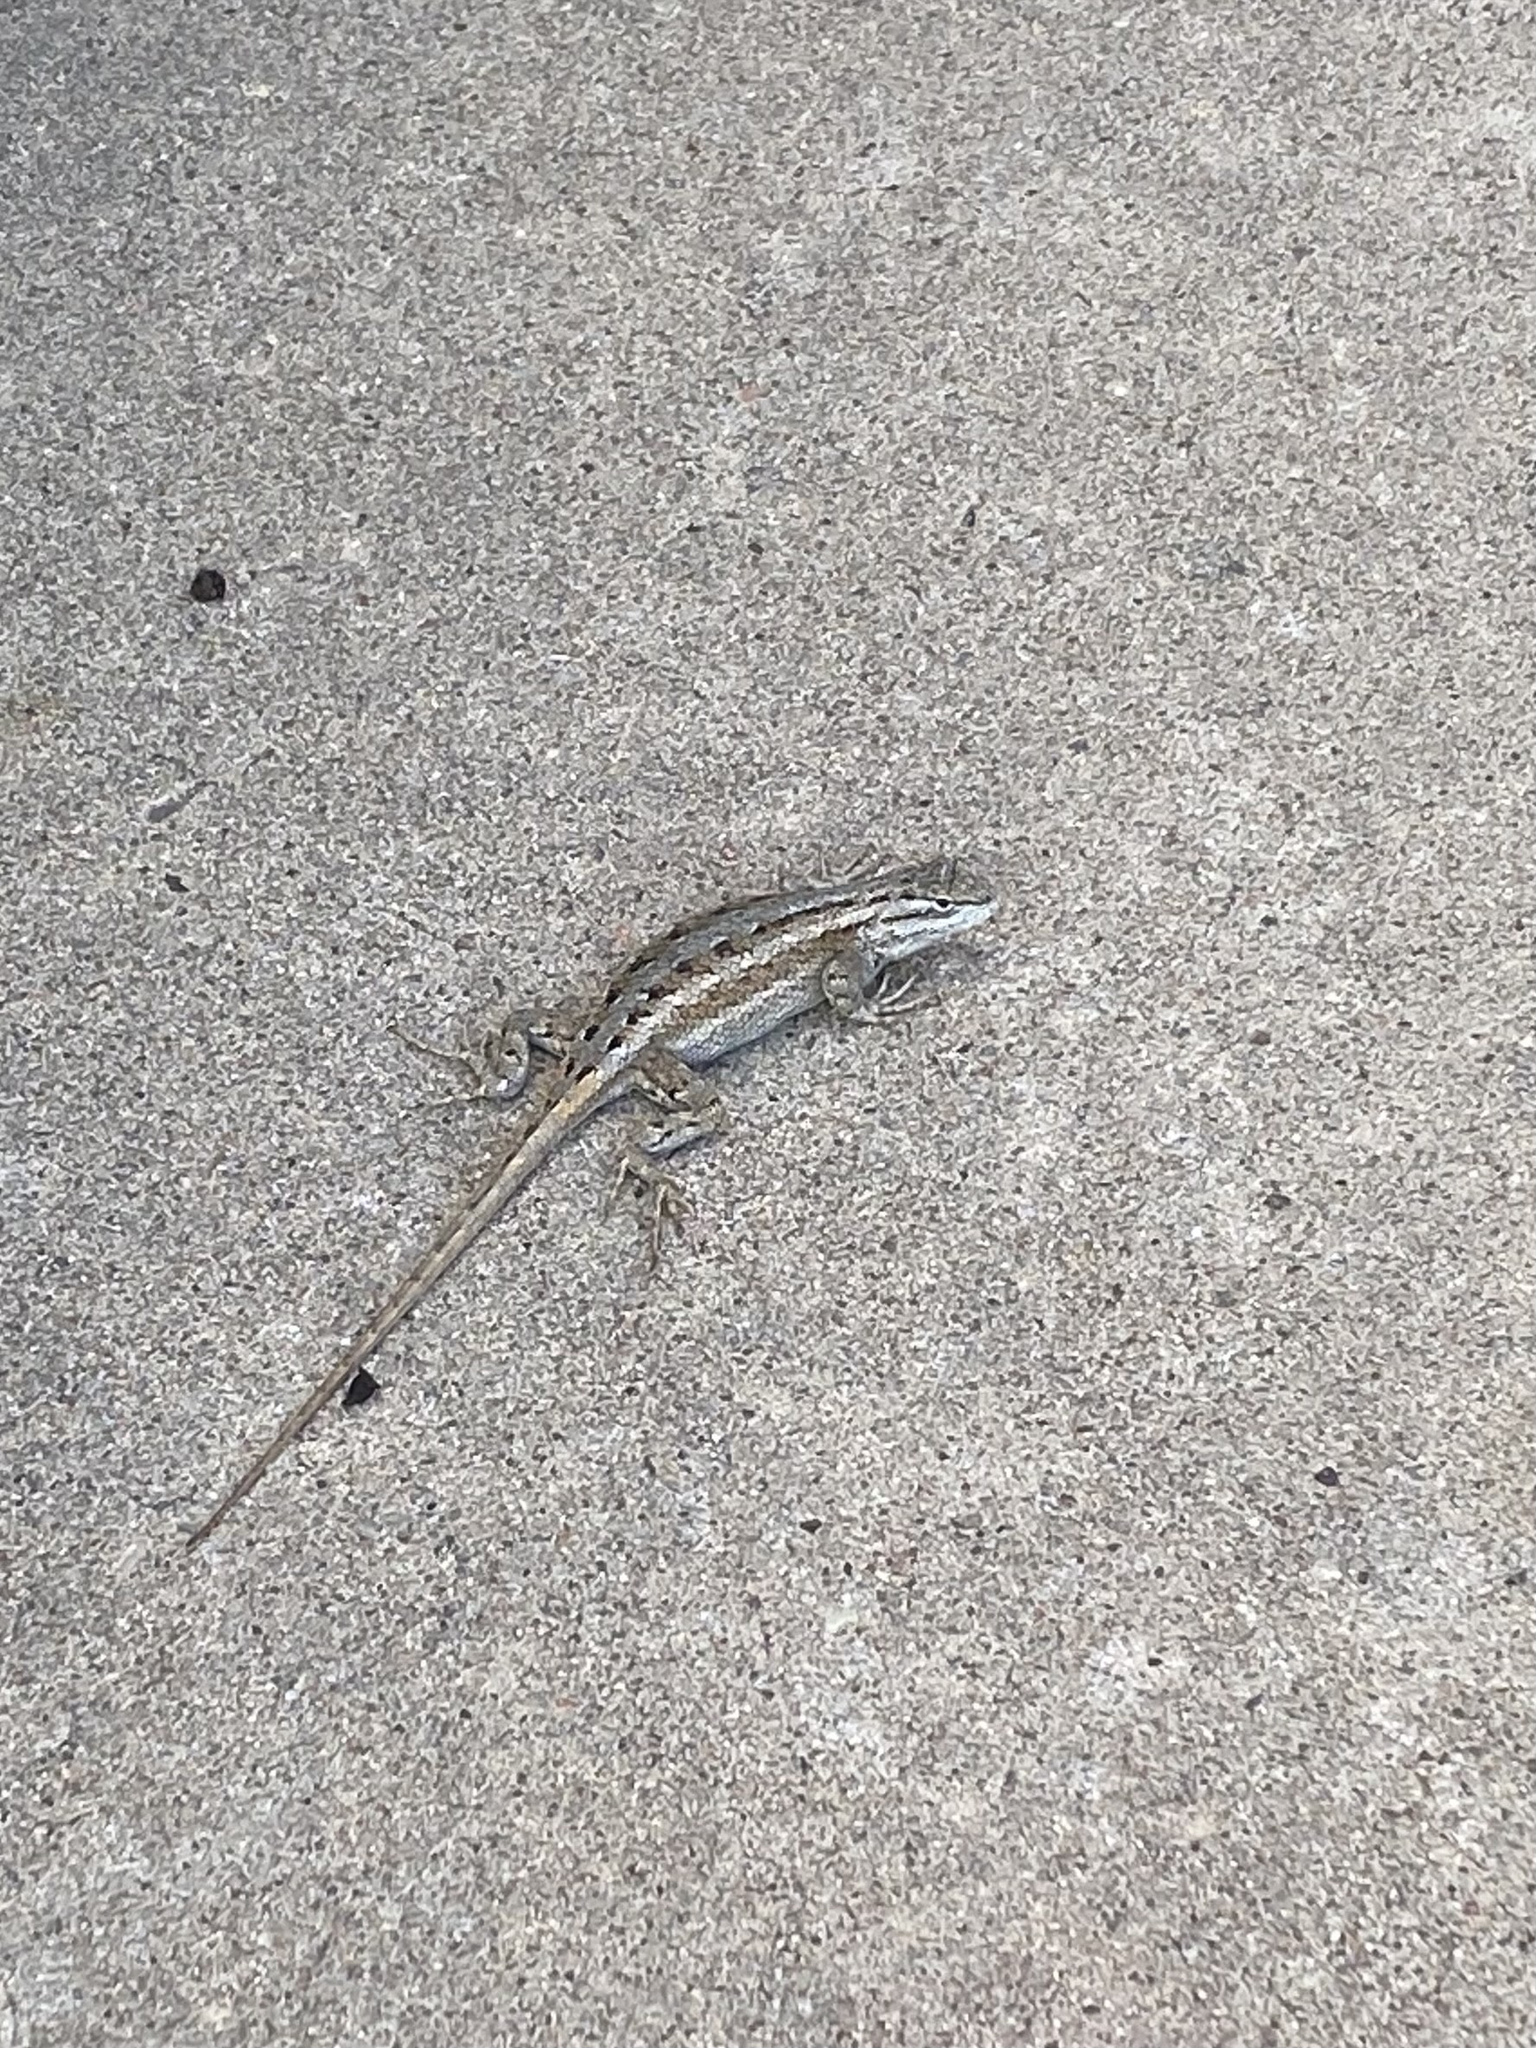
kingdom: Animalia
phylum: Chordata
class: Squamata
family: Phrynosomatidae
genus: Sceloporus
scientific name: Sceloporus cowlesi
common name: White sands prairie lizard
